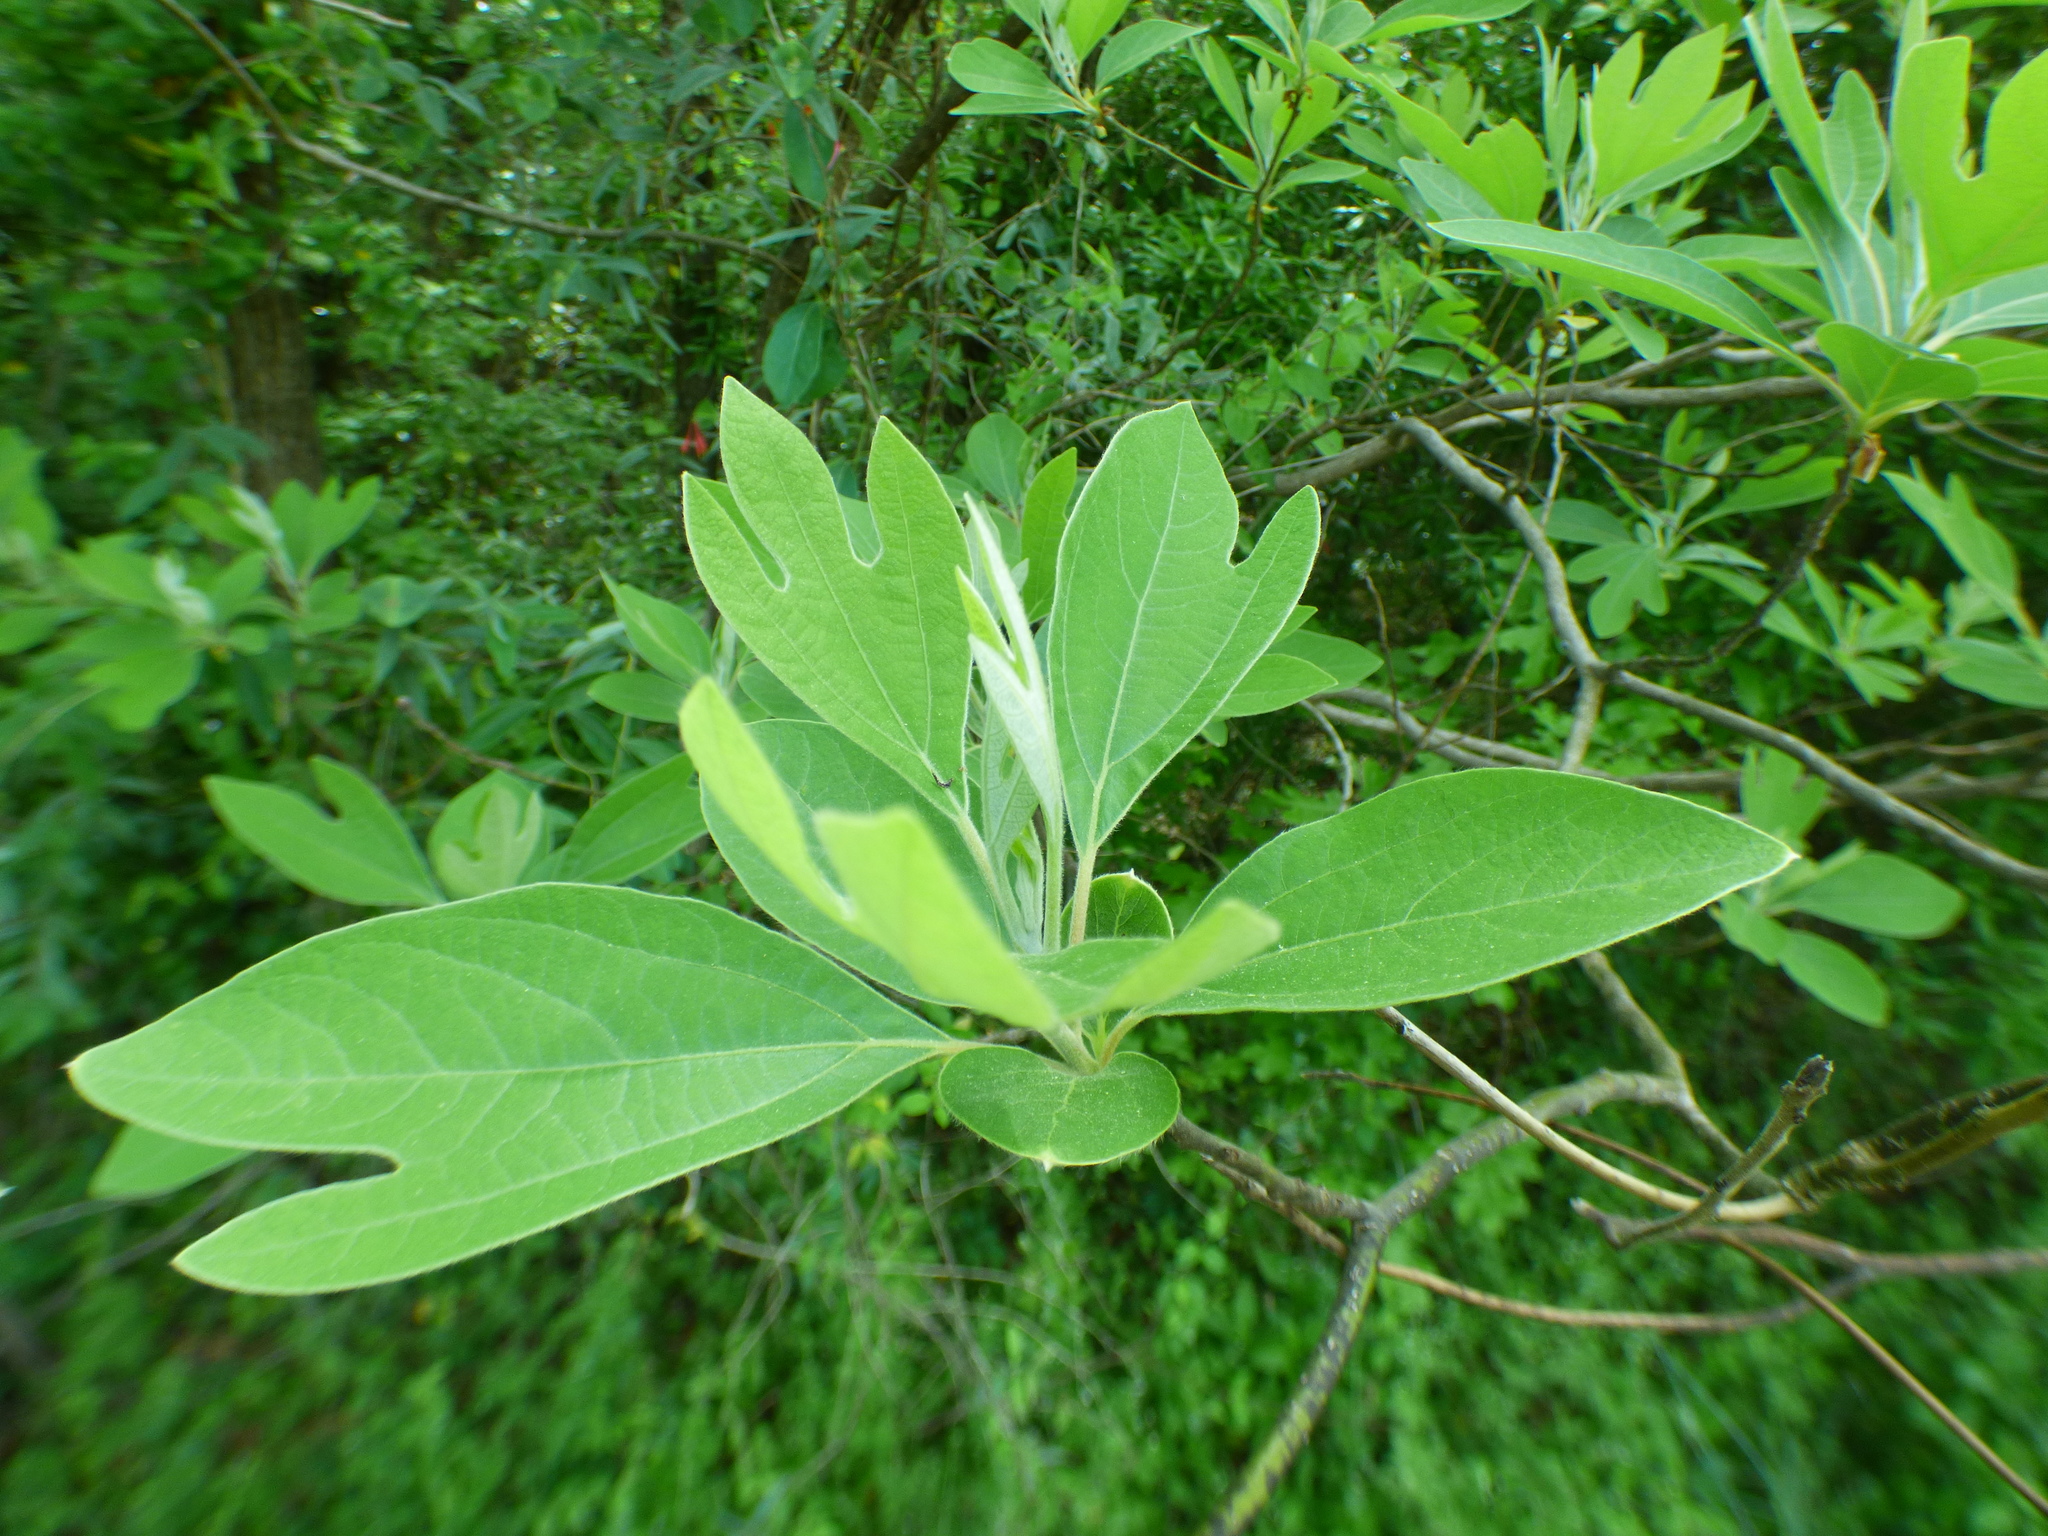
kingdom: Plantae
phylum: Tracheophyta
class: Magnoliopsida
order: Laurales
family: Lauraceae
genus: Sassafras
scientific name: Sassafras albidum
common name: Sassafras
